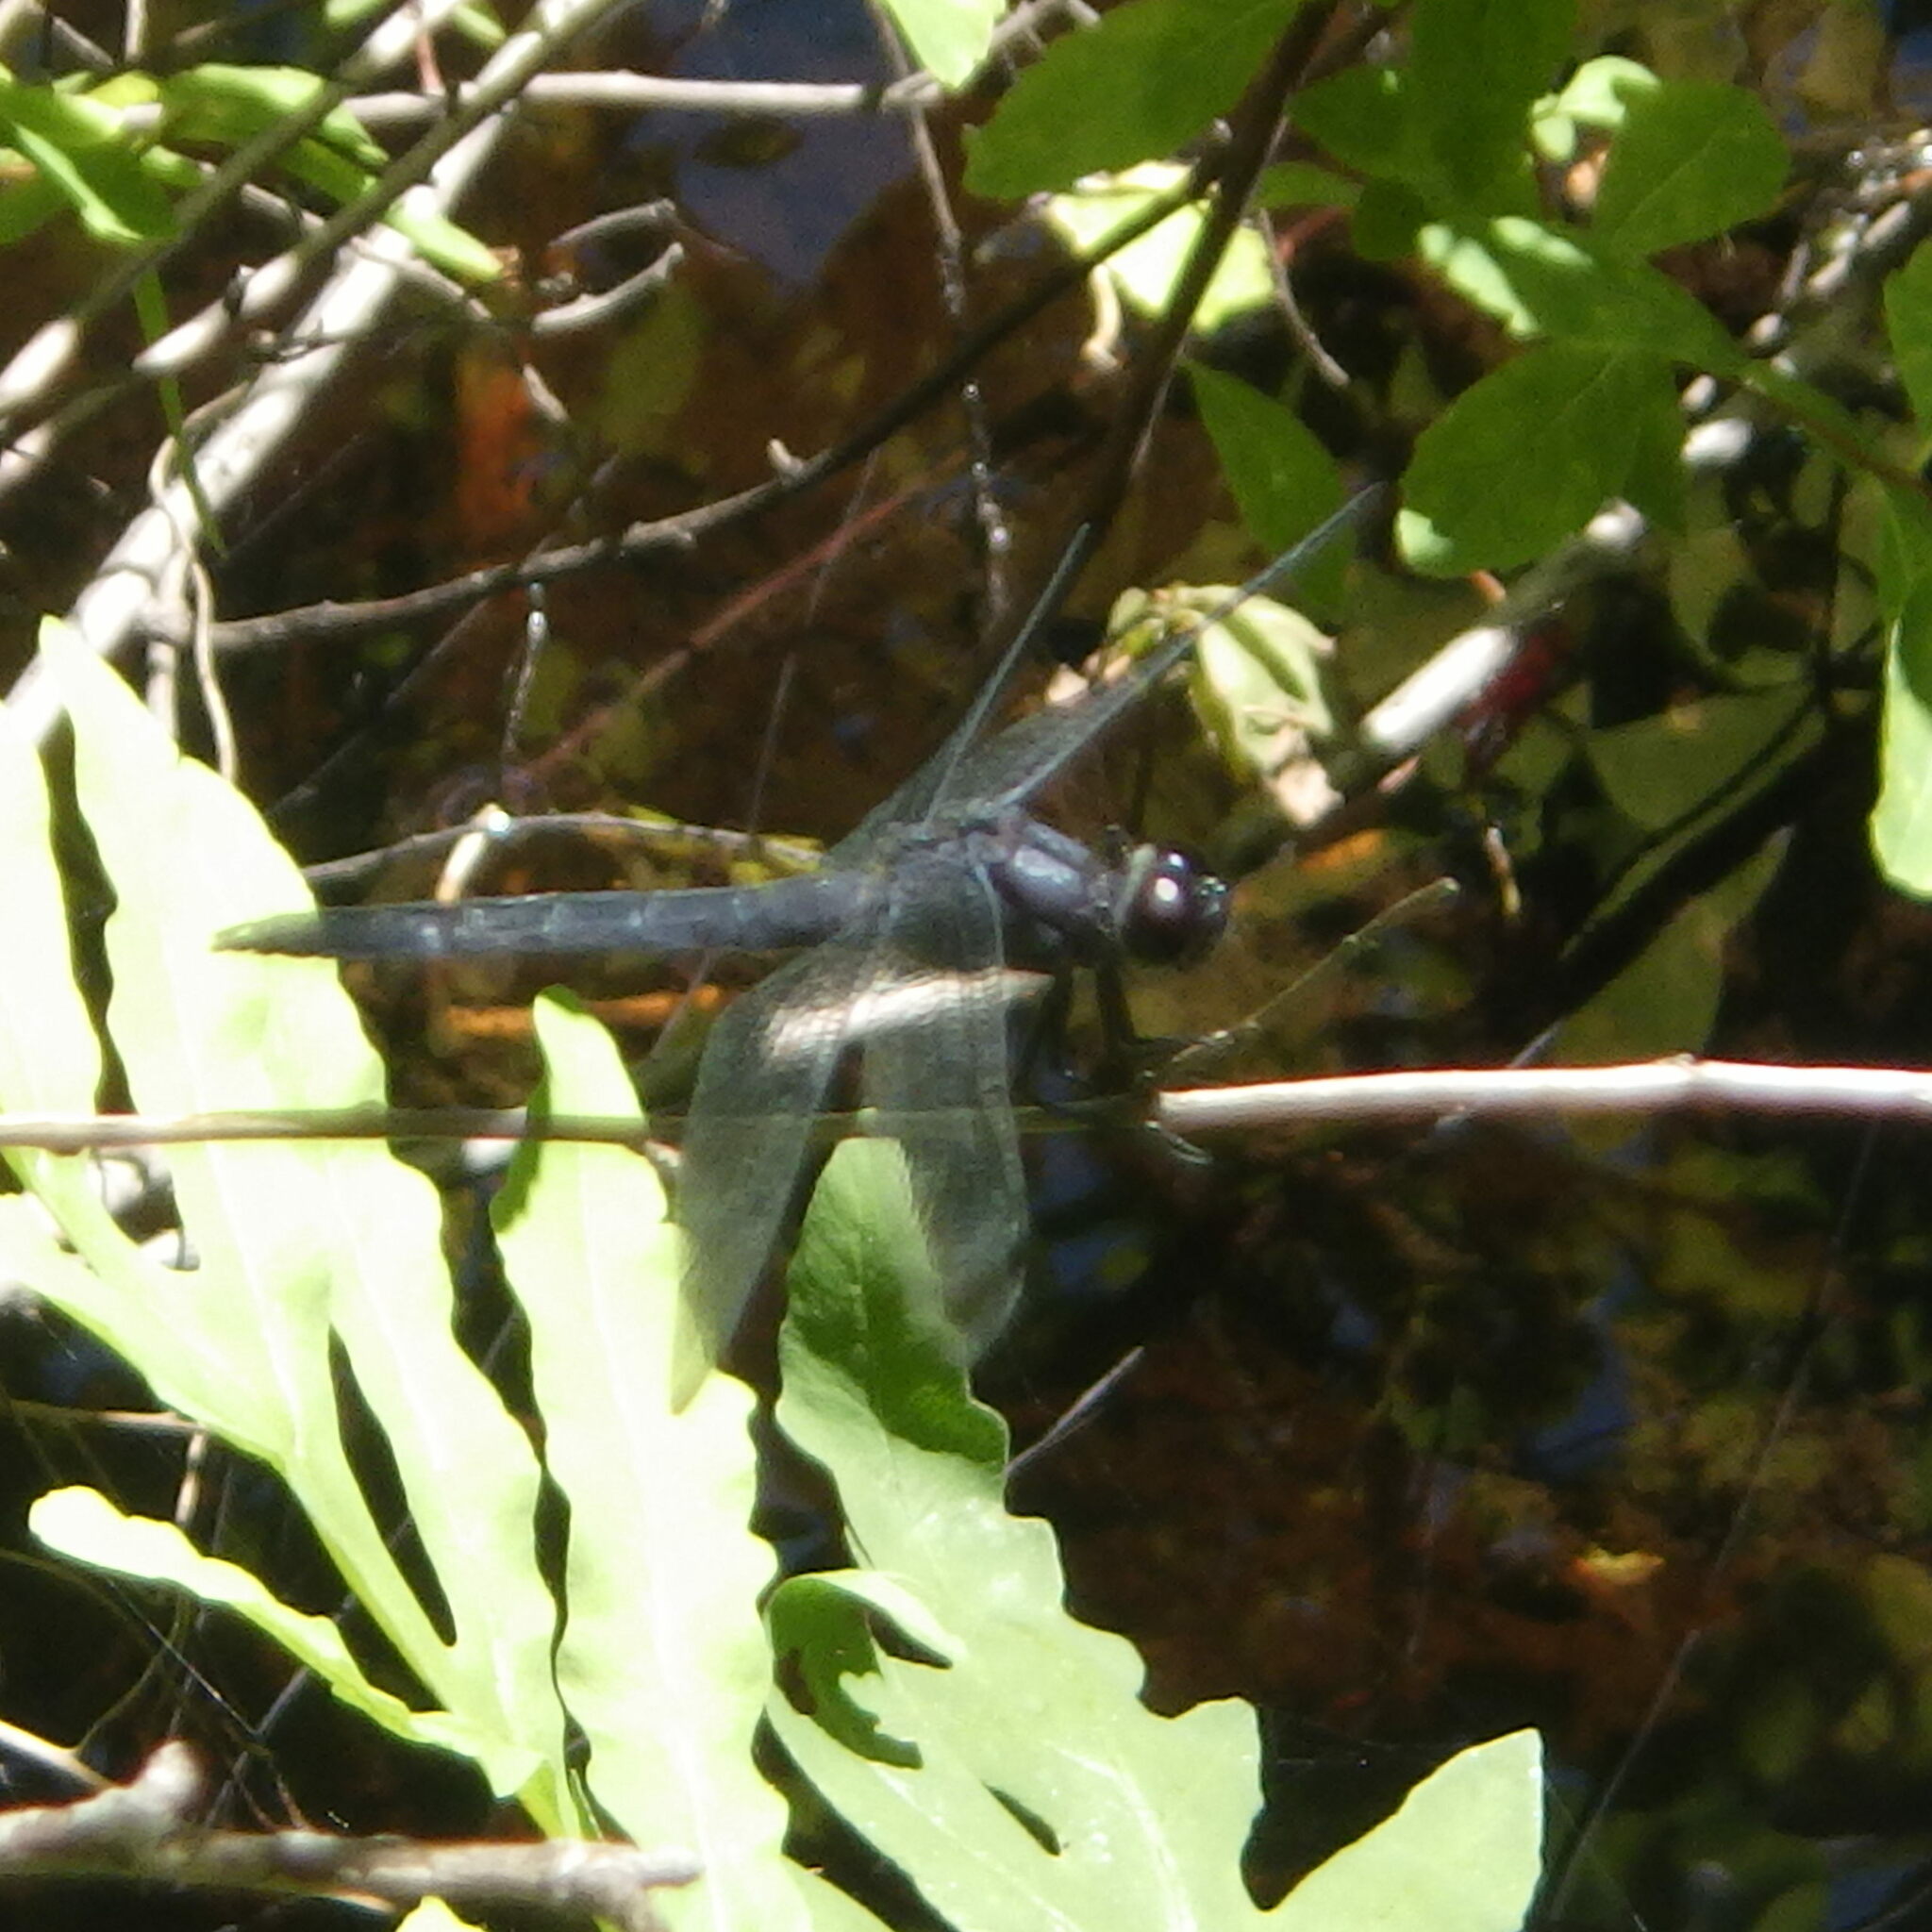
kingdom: Animalia
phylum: Arthropoda
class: Insecta
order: Odonata
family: Libellulidae
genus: Libellula
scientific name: Libellula incesta
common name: Slaty skimmer
